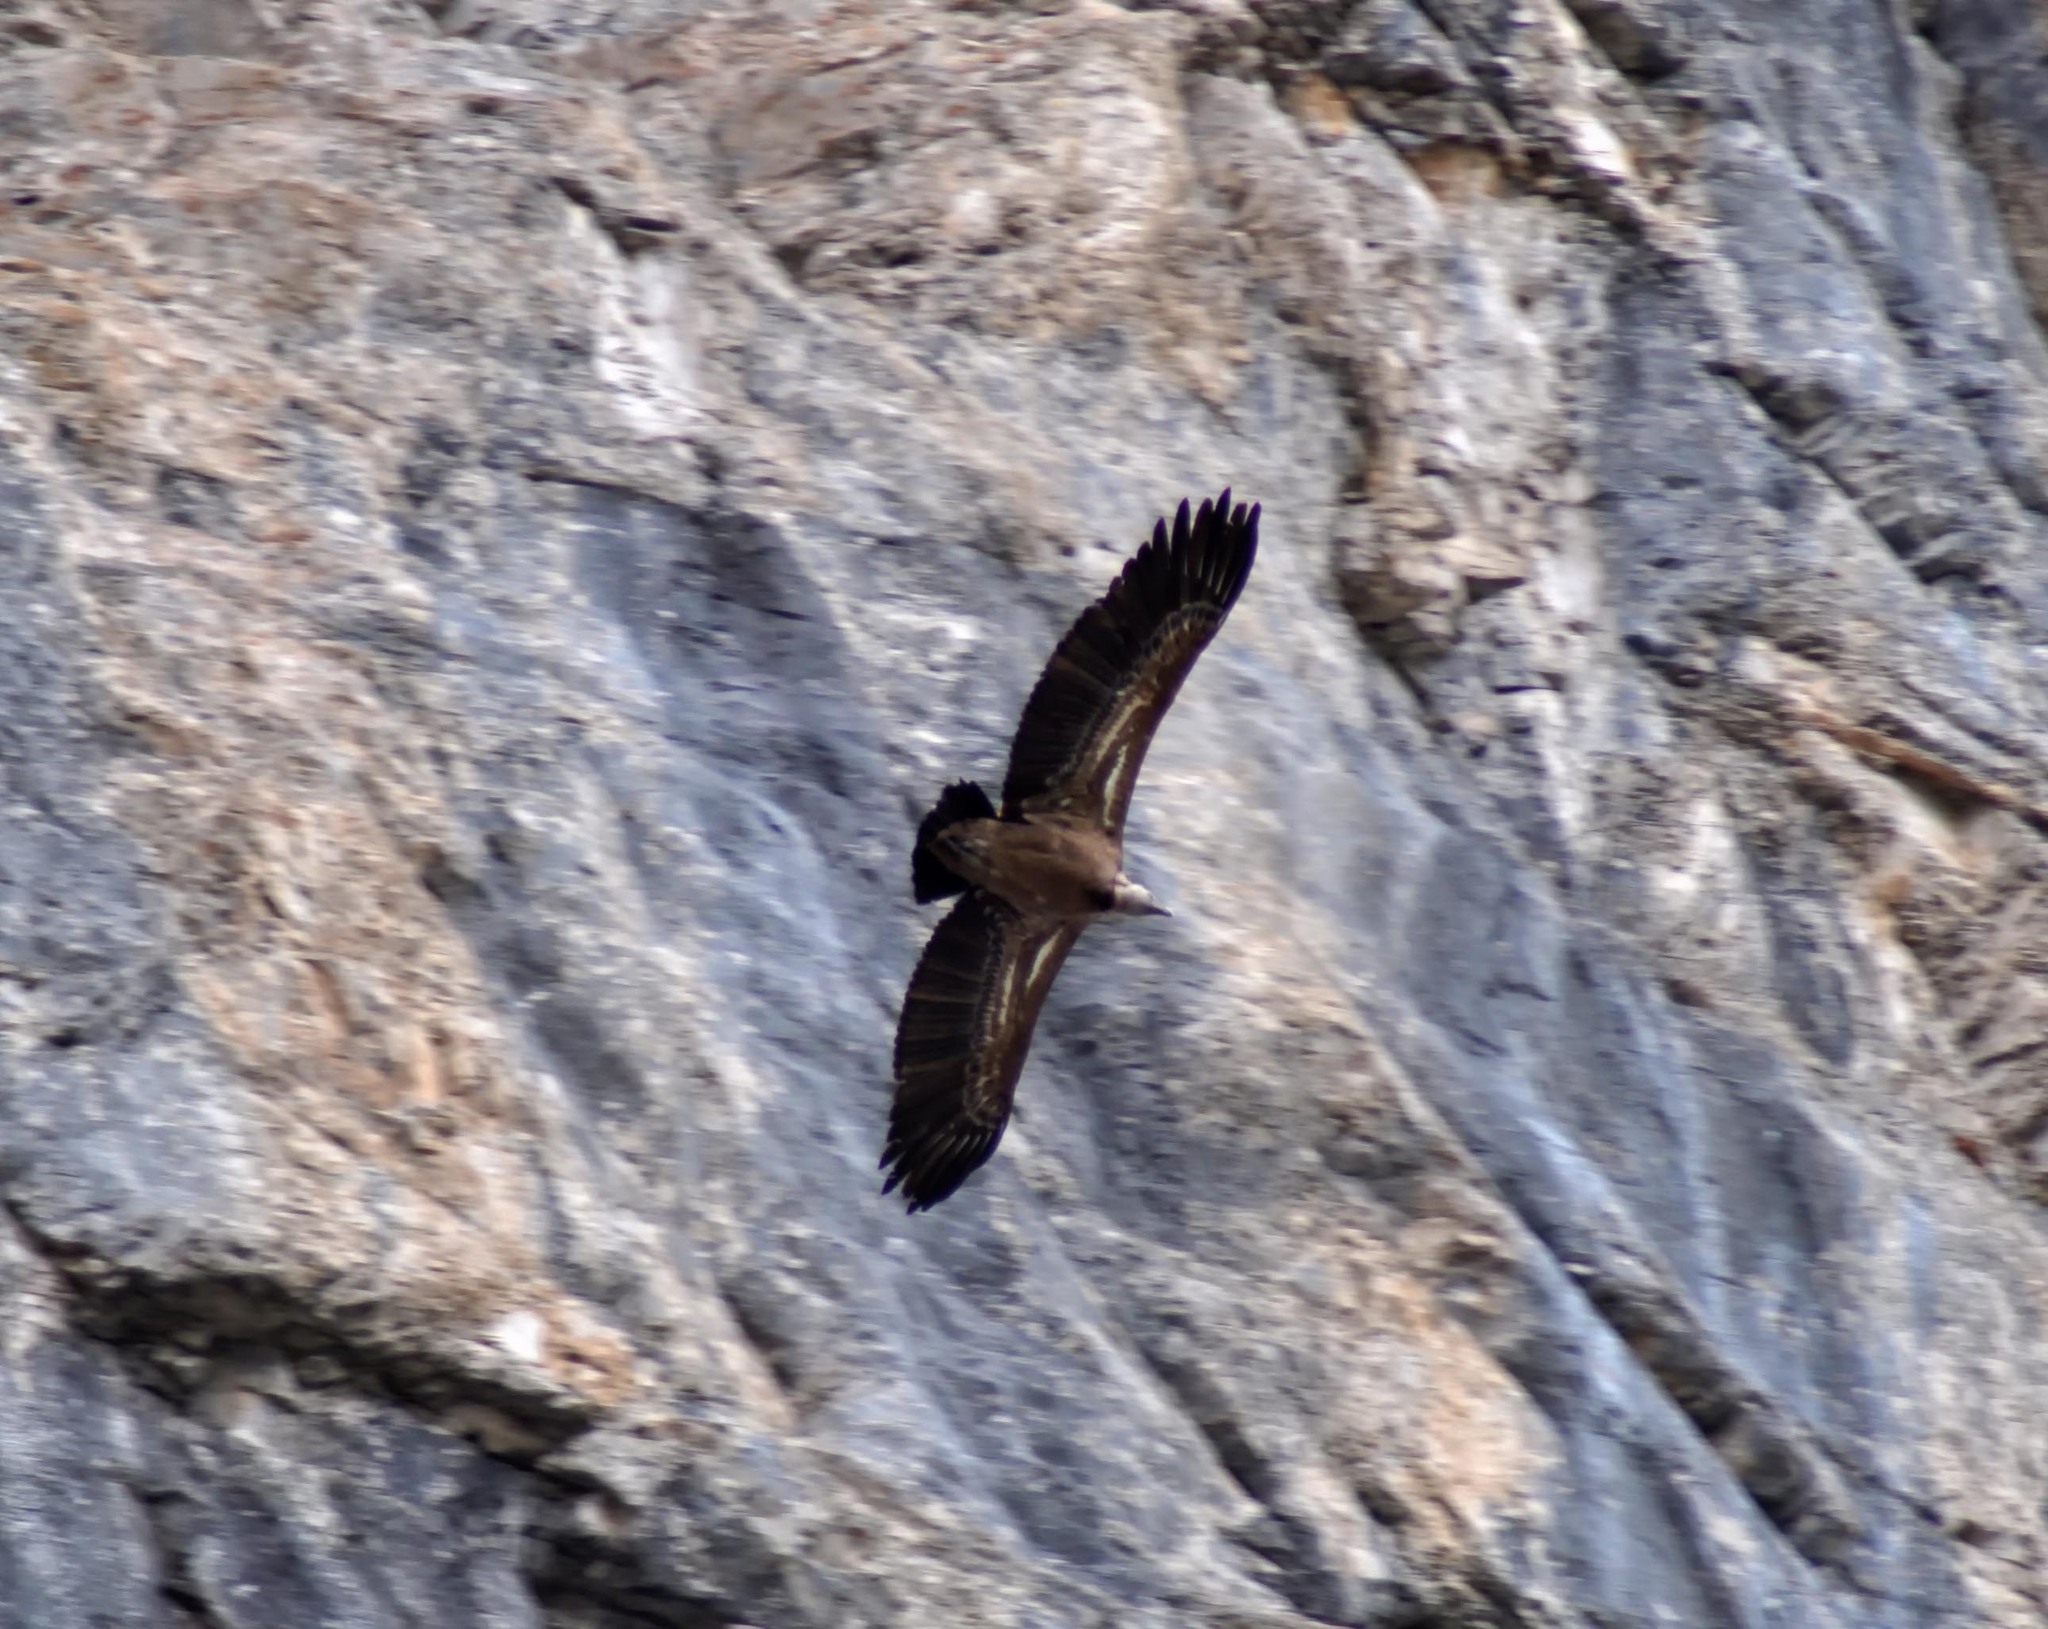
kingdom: Animalia
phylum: Chordata
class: Aves
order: Accipitriformes
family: Accipitridae
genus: Gyps
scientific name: Gyps fulvus
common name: Griffon vulture
